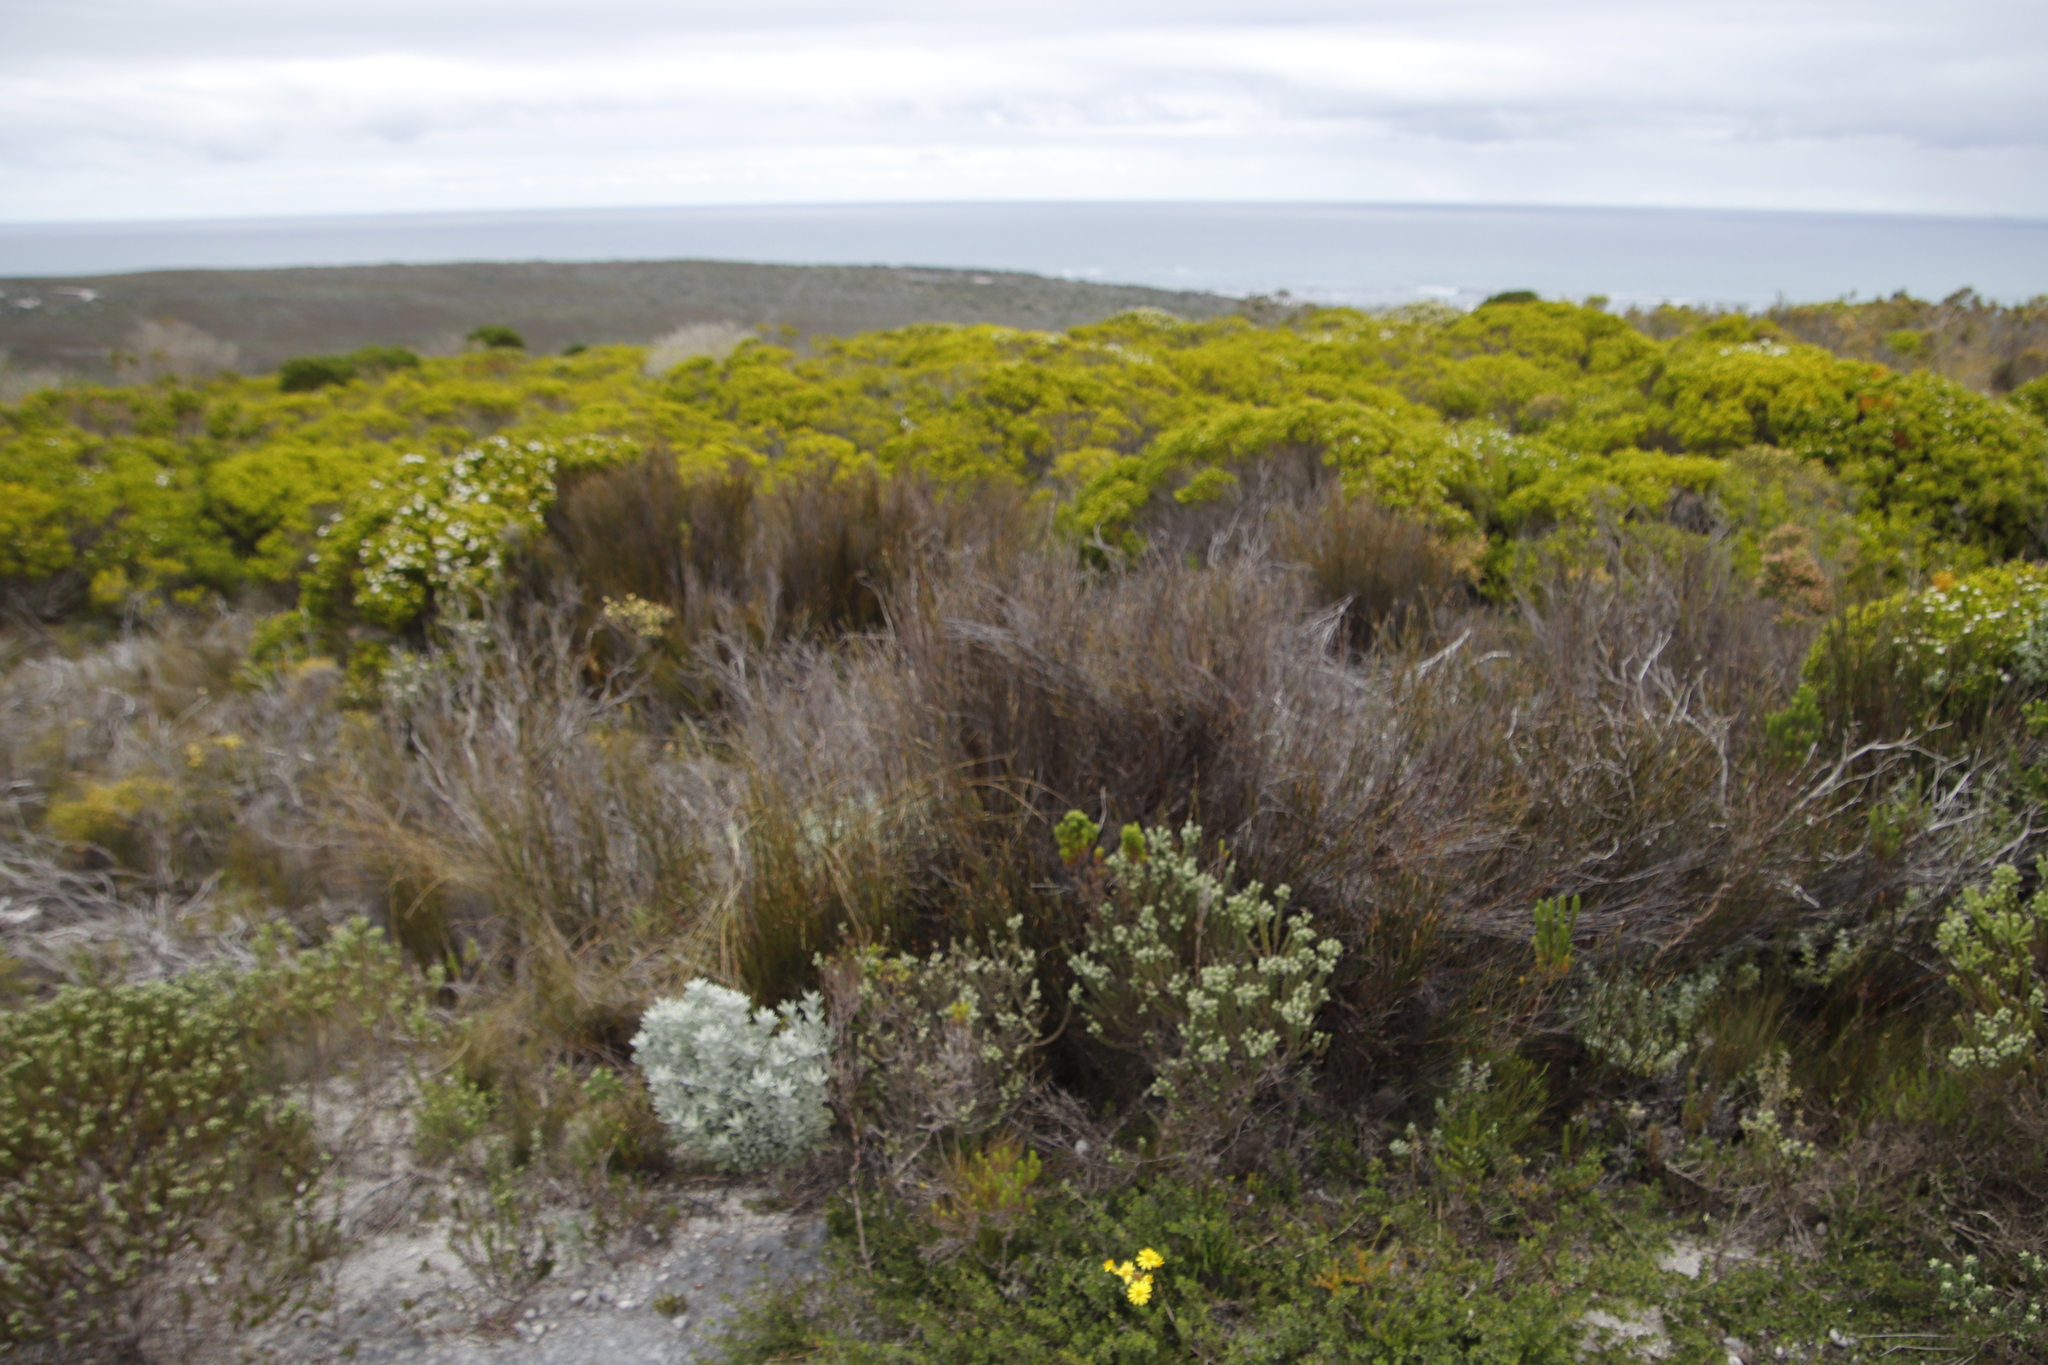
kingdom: Plantae
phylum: Tracheophyta
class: Liliopsida
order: Poales
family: Restionaceae
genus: Willdenowia
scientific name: Willdenowia teres
